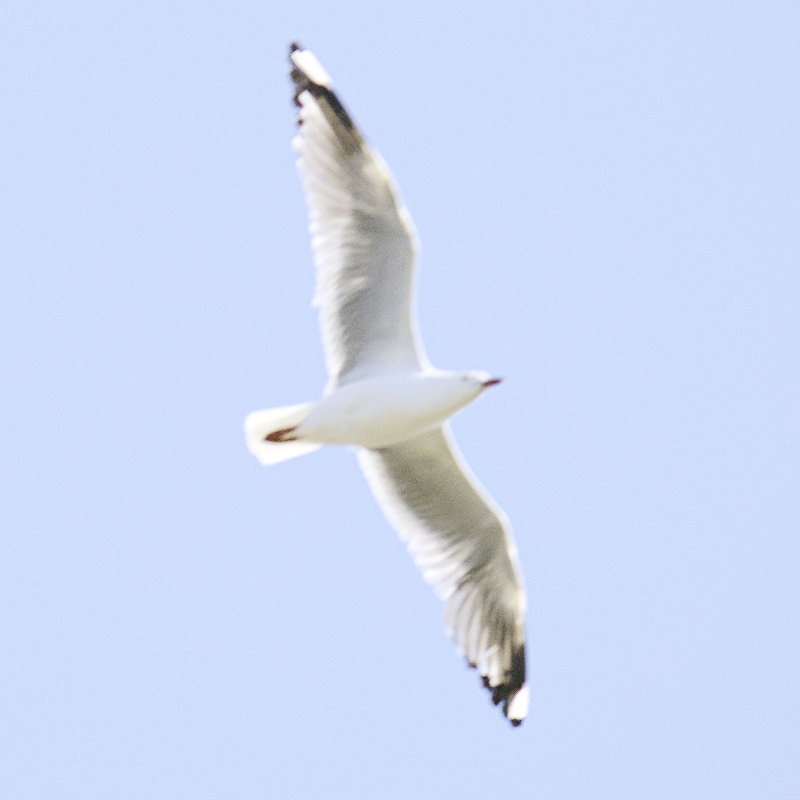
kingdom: Animalia
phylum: Chordata
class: Aves
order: Charadriiformes
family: Laridae
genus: Chroicocephalus
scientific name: Chroicocephalus novaehollandiae
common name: Silver gull
